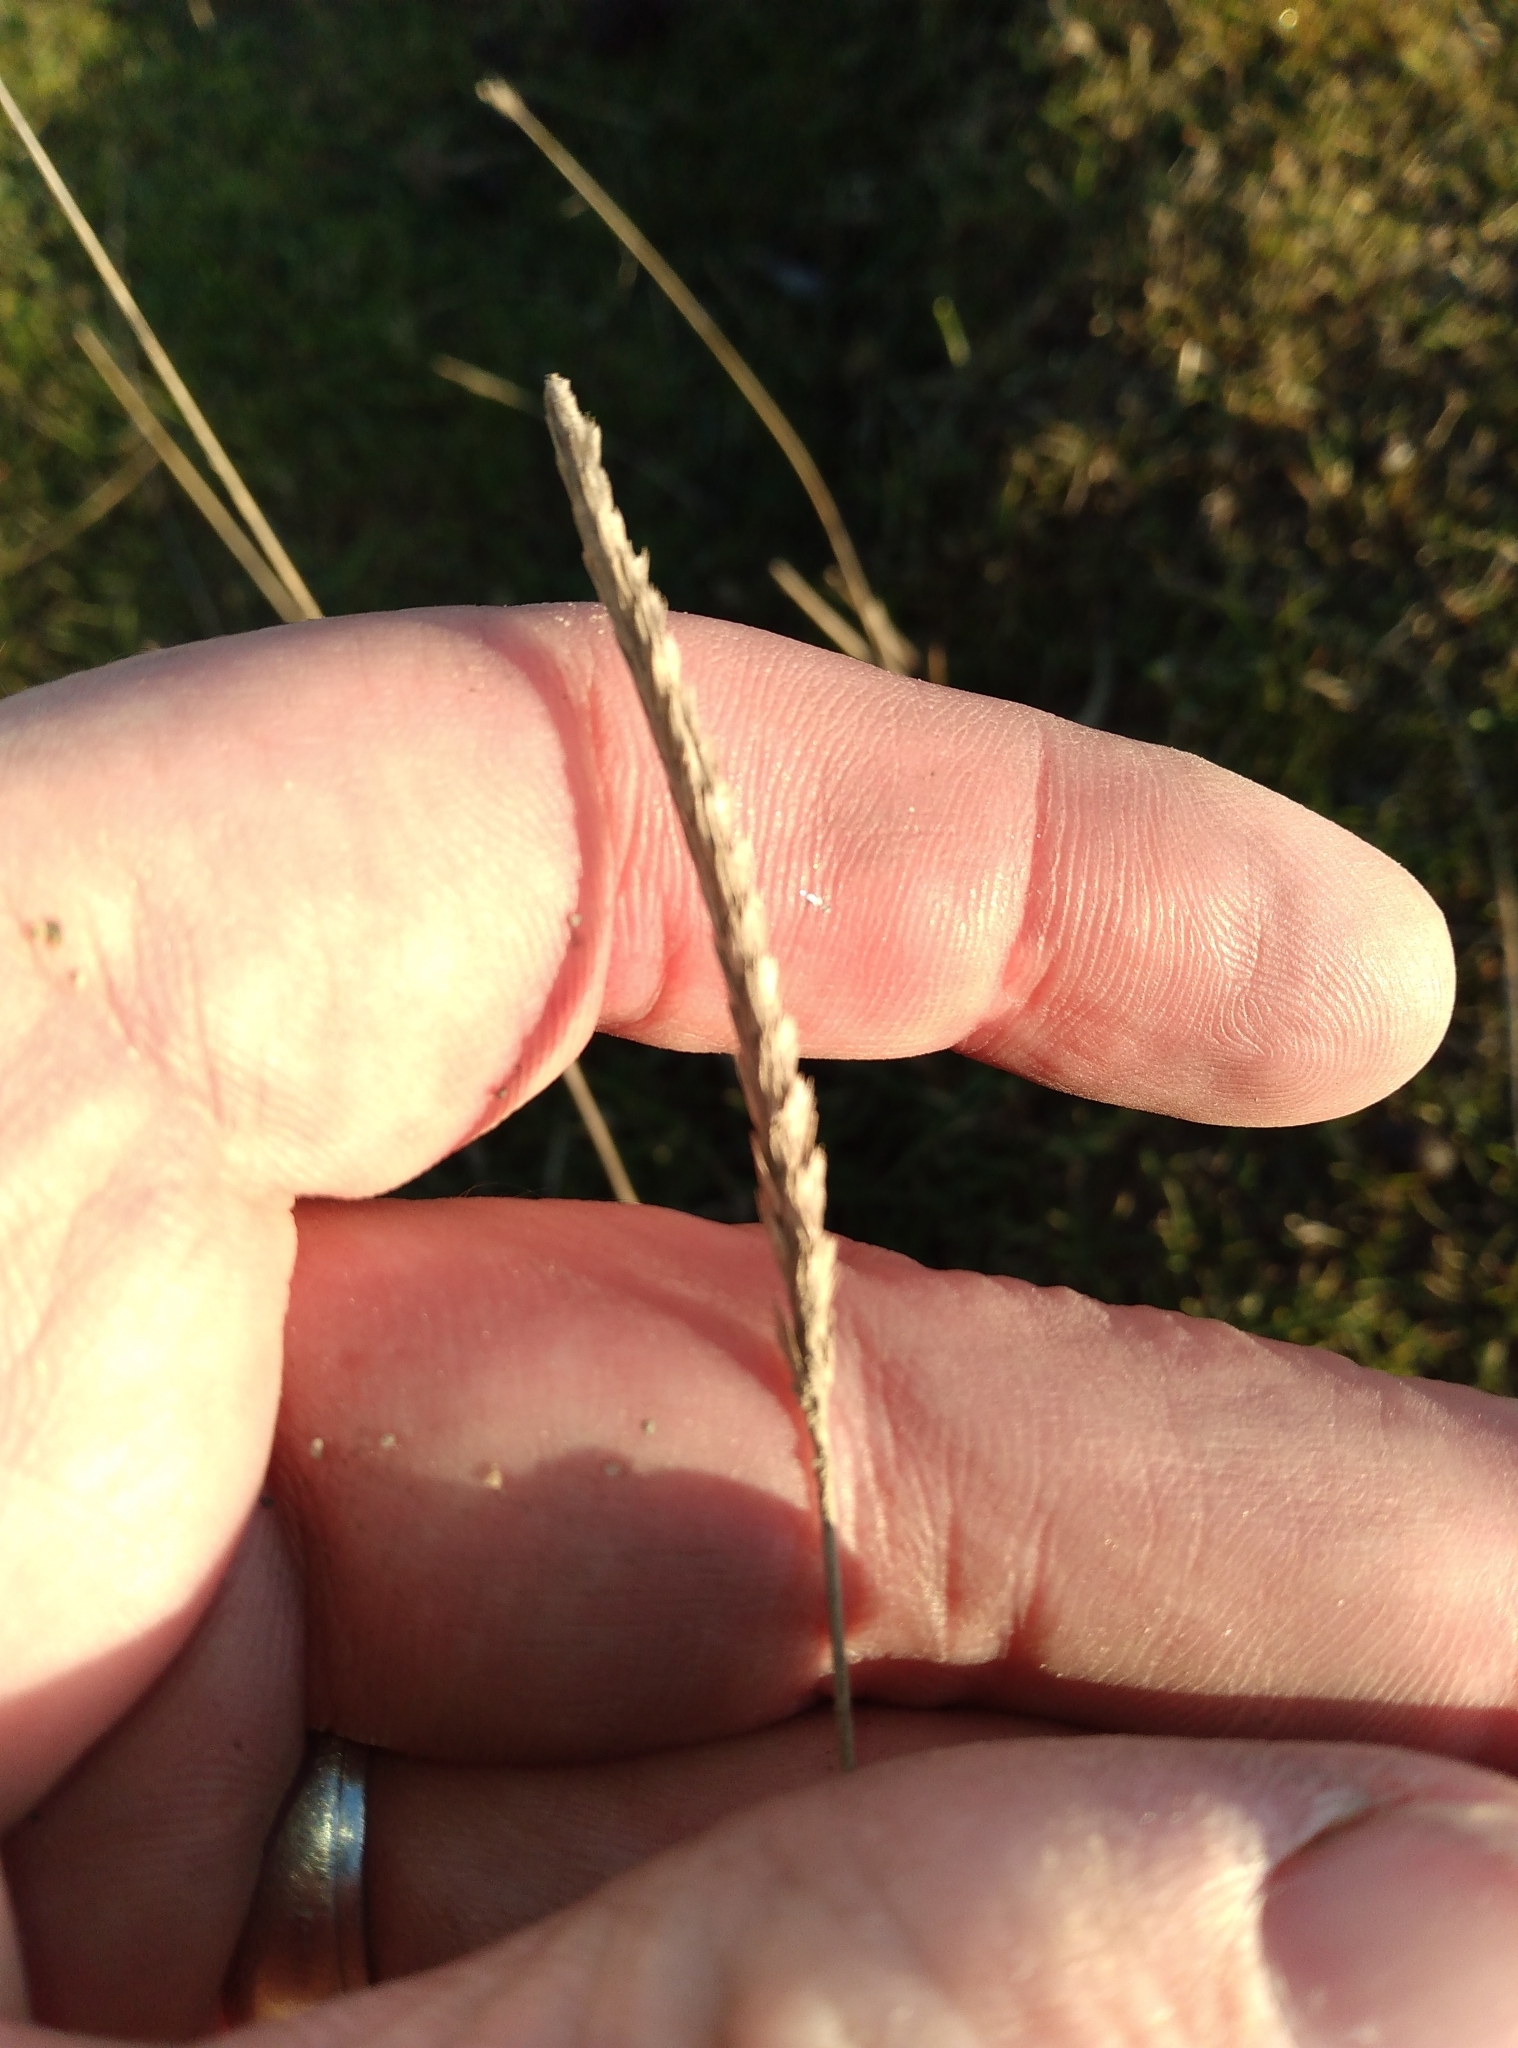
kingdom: Plantae
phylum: Tracheophyta
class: Liliopsida
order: Poales
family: Poaceae
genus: Cynosurus
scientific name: Cynosurus cristatus
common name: Crested dog's-tail
